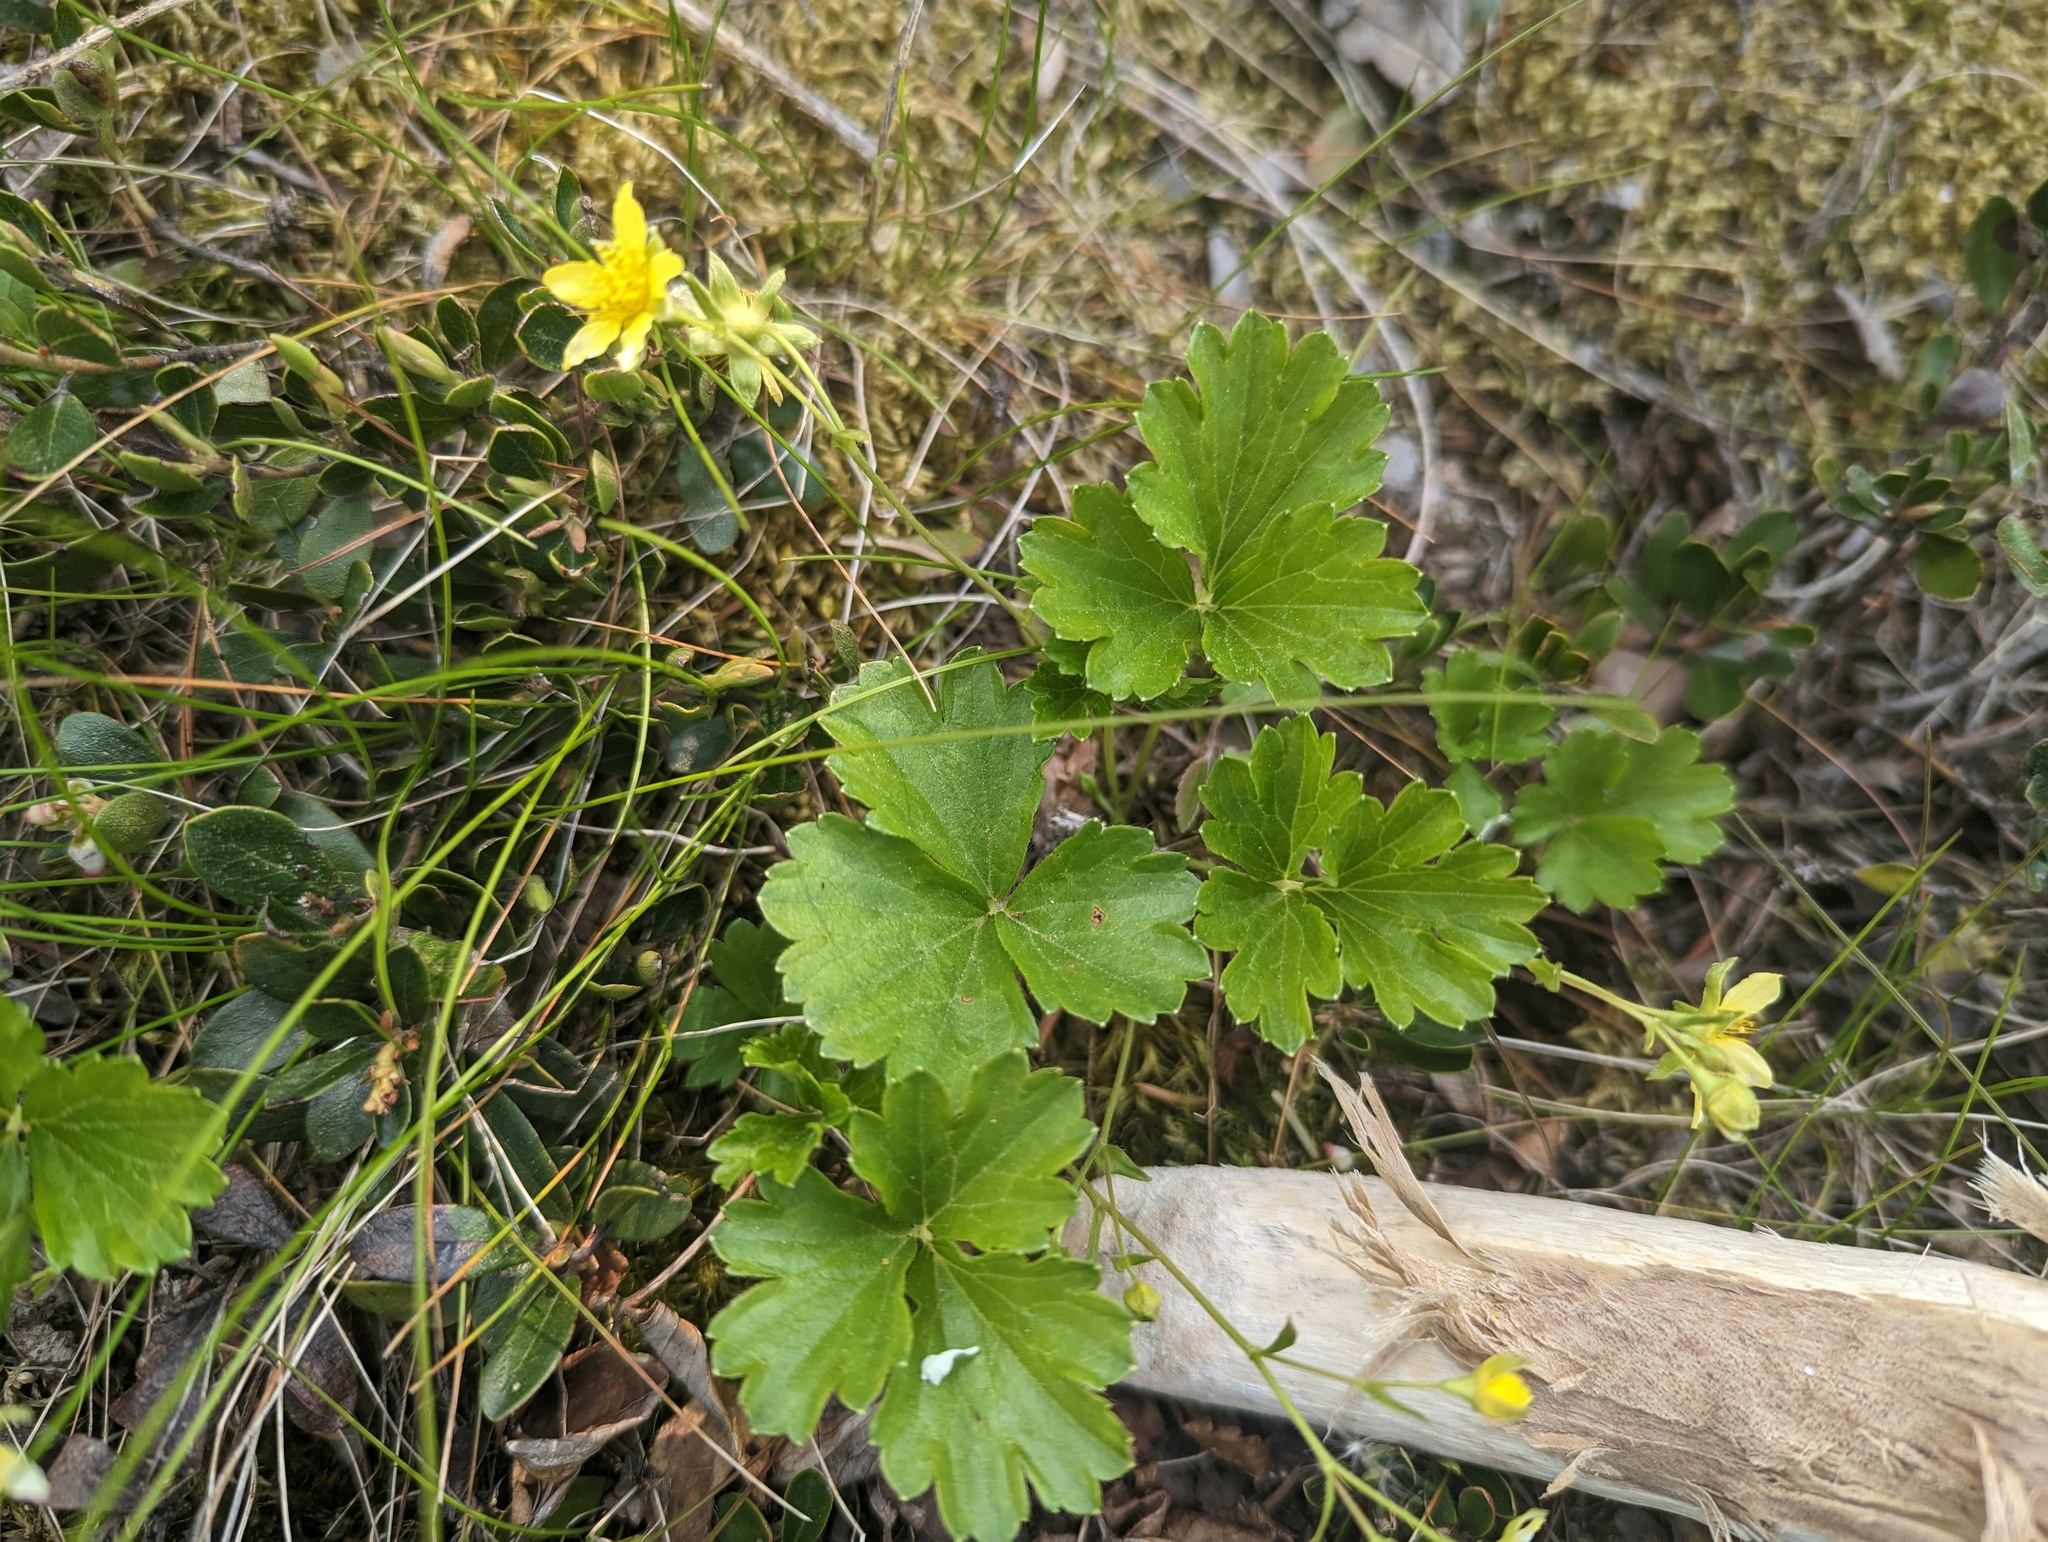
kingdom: Plantae
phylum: Tracheophyta
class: Magnoliopsida
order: Rosales
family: Rosaceae
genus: Geum
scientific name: Geum fragarioides
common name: Appalachian barren strawberry
